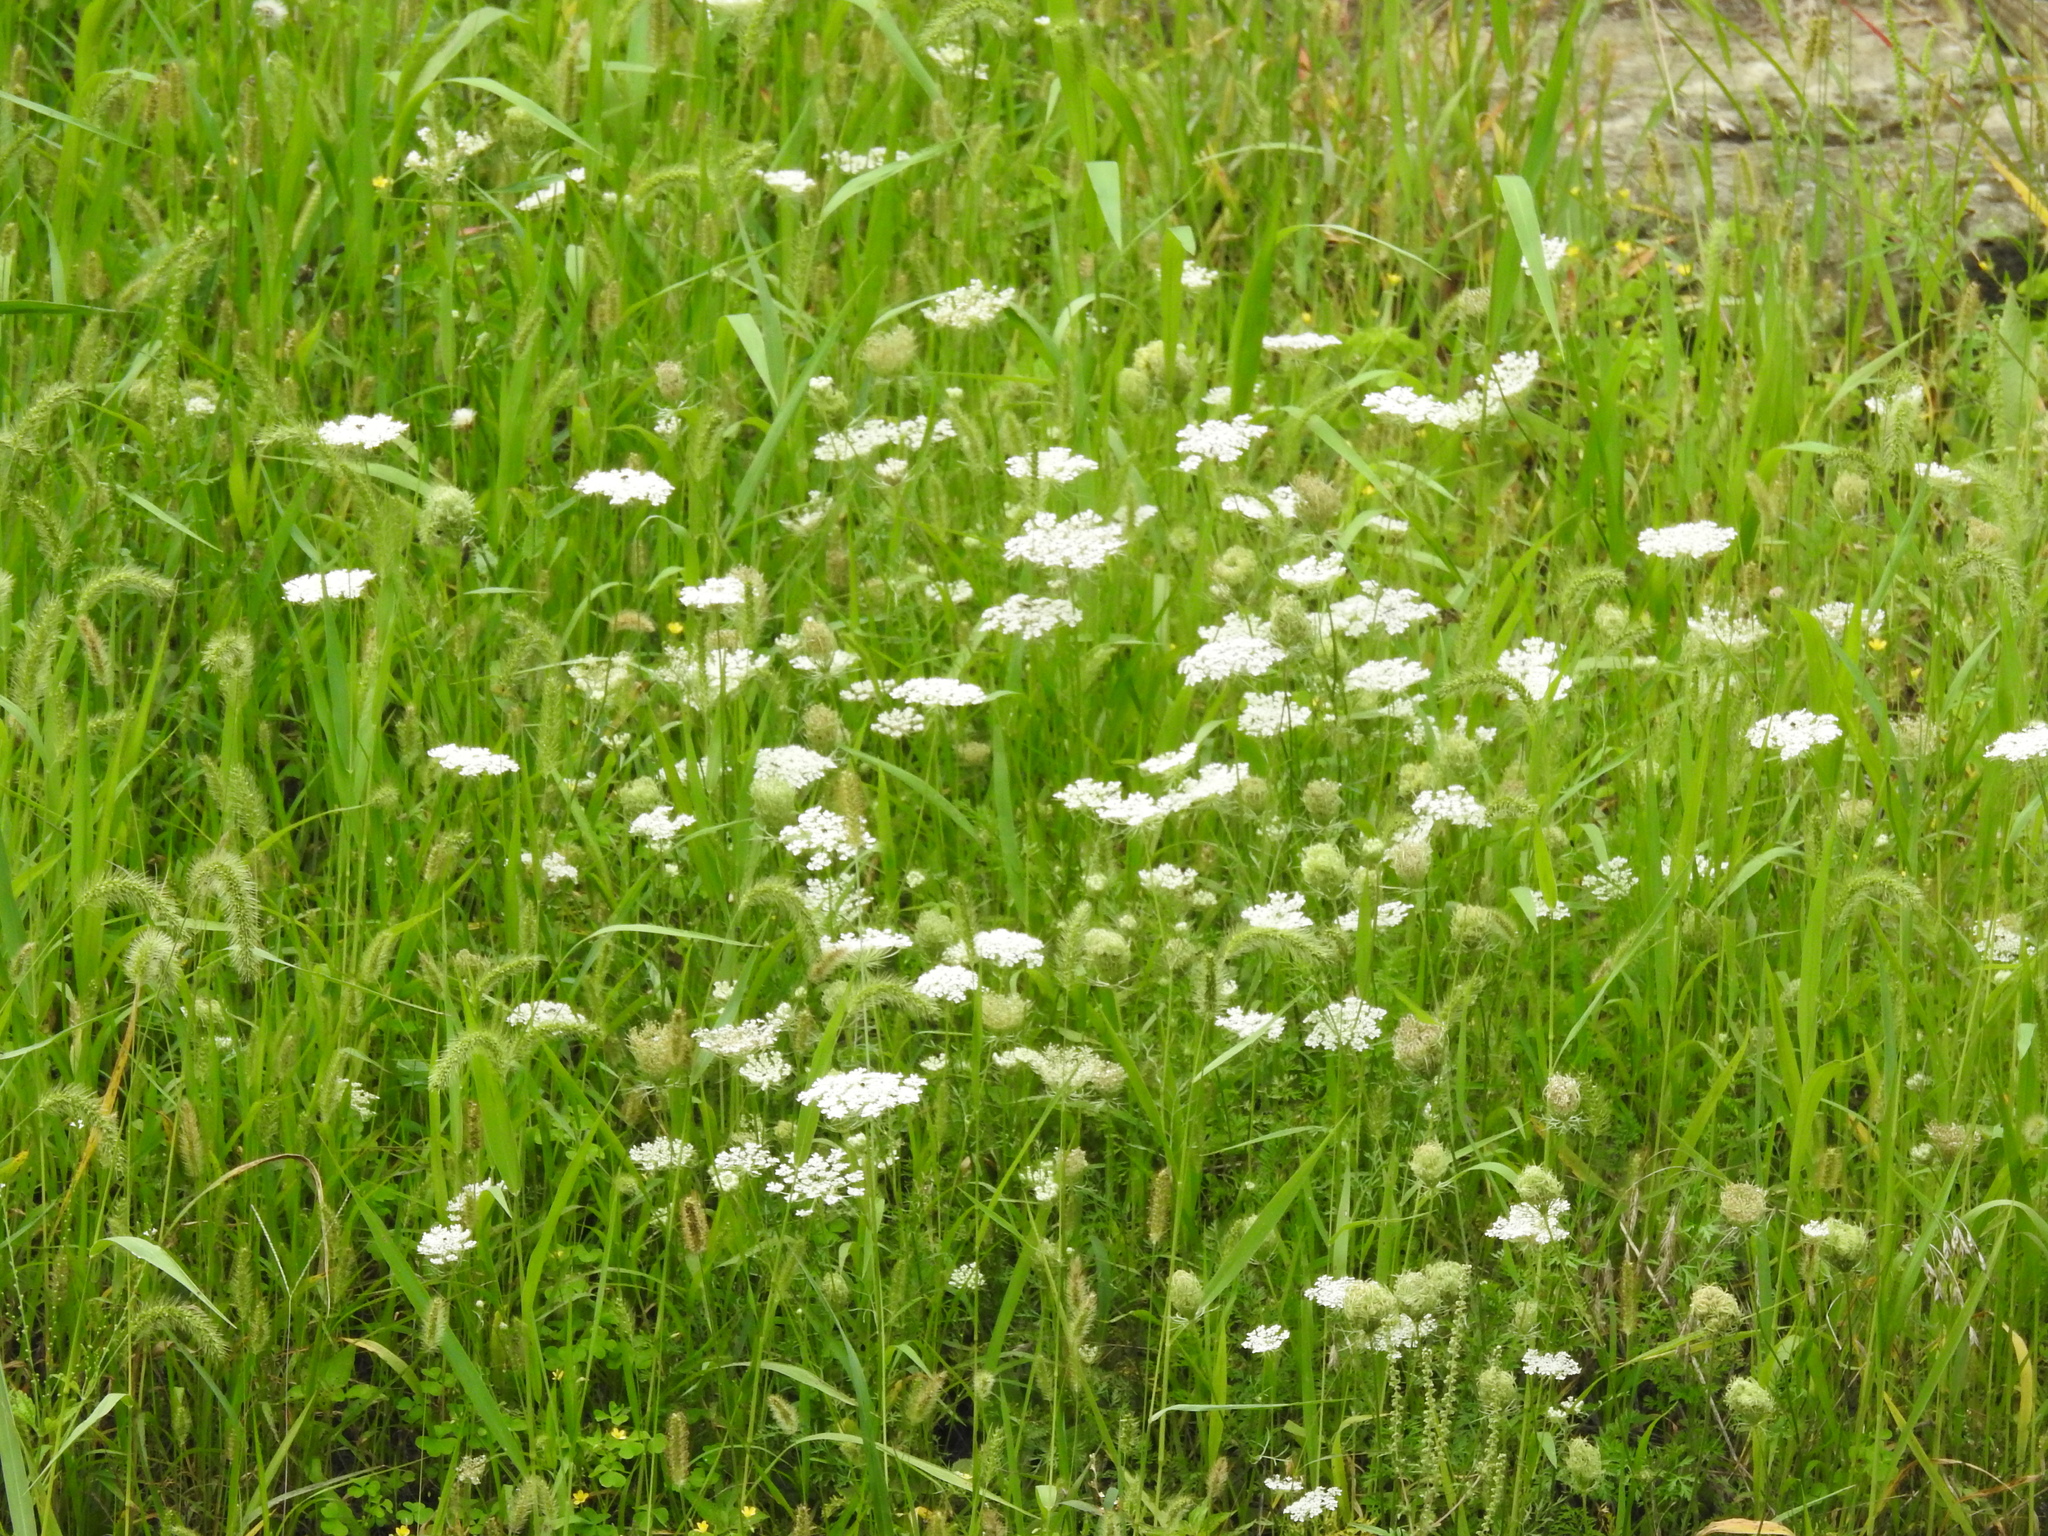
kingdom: Plantae
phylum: Tracheophyta
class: Magnoliopsida
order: Apiales
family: Apiaceae
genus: Daucus
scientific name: Daucus carota
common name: Wild carrot
